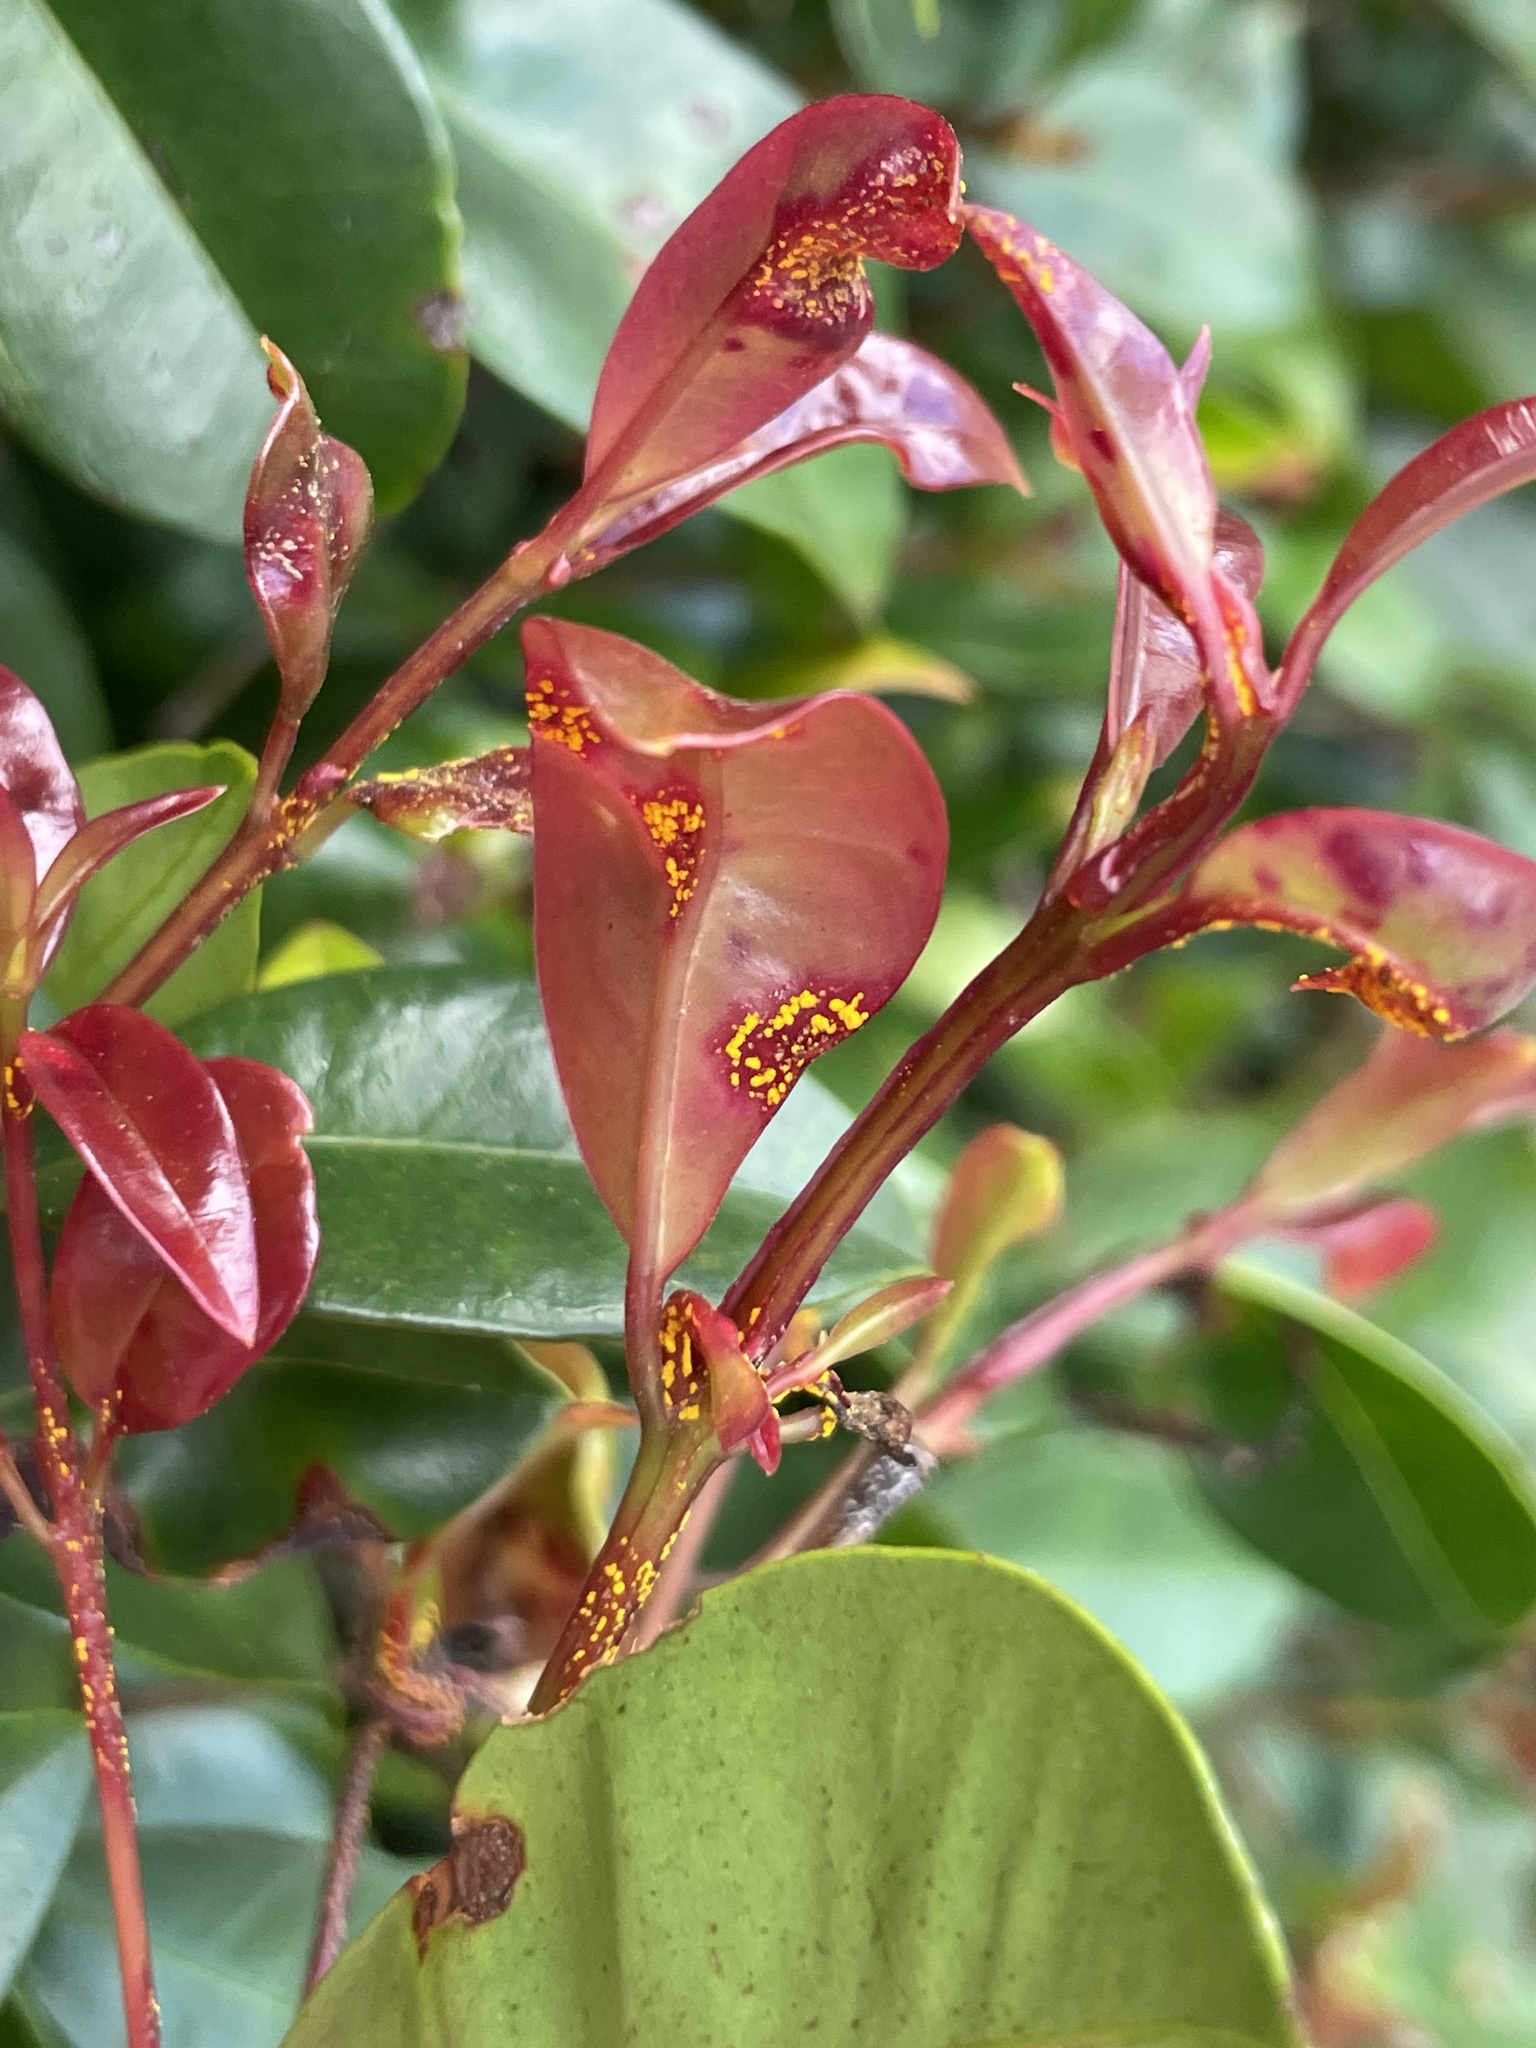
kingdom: Fungi
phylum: Basidiomycota
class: Pucciniomycetes
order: Pucciniales
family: Sphaerophragmiaceae
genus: Austropuccinia
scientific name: Austropuccinia psidii
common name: Myrtle rust
